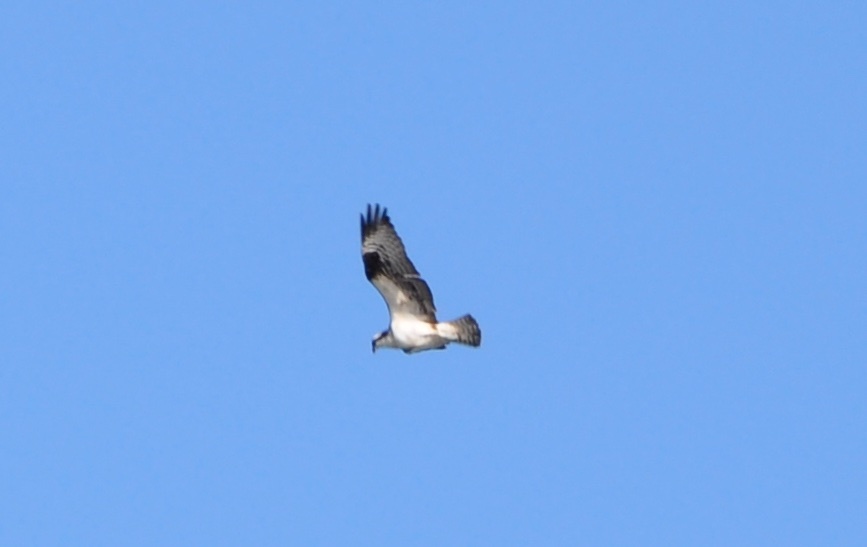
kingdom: Animalia
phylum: Chordata
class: Aves
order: Accipitriformes
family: Pandionidae
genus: Pandion
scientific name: Pandion haliaetus
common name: Osprey
